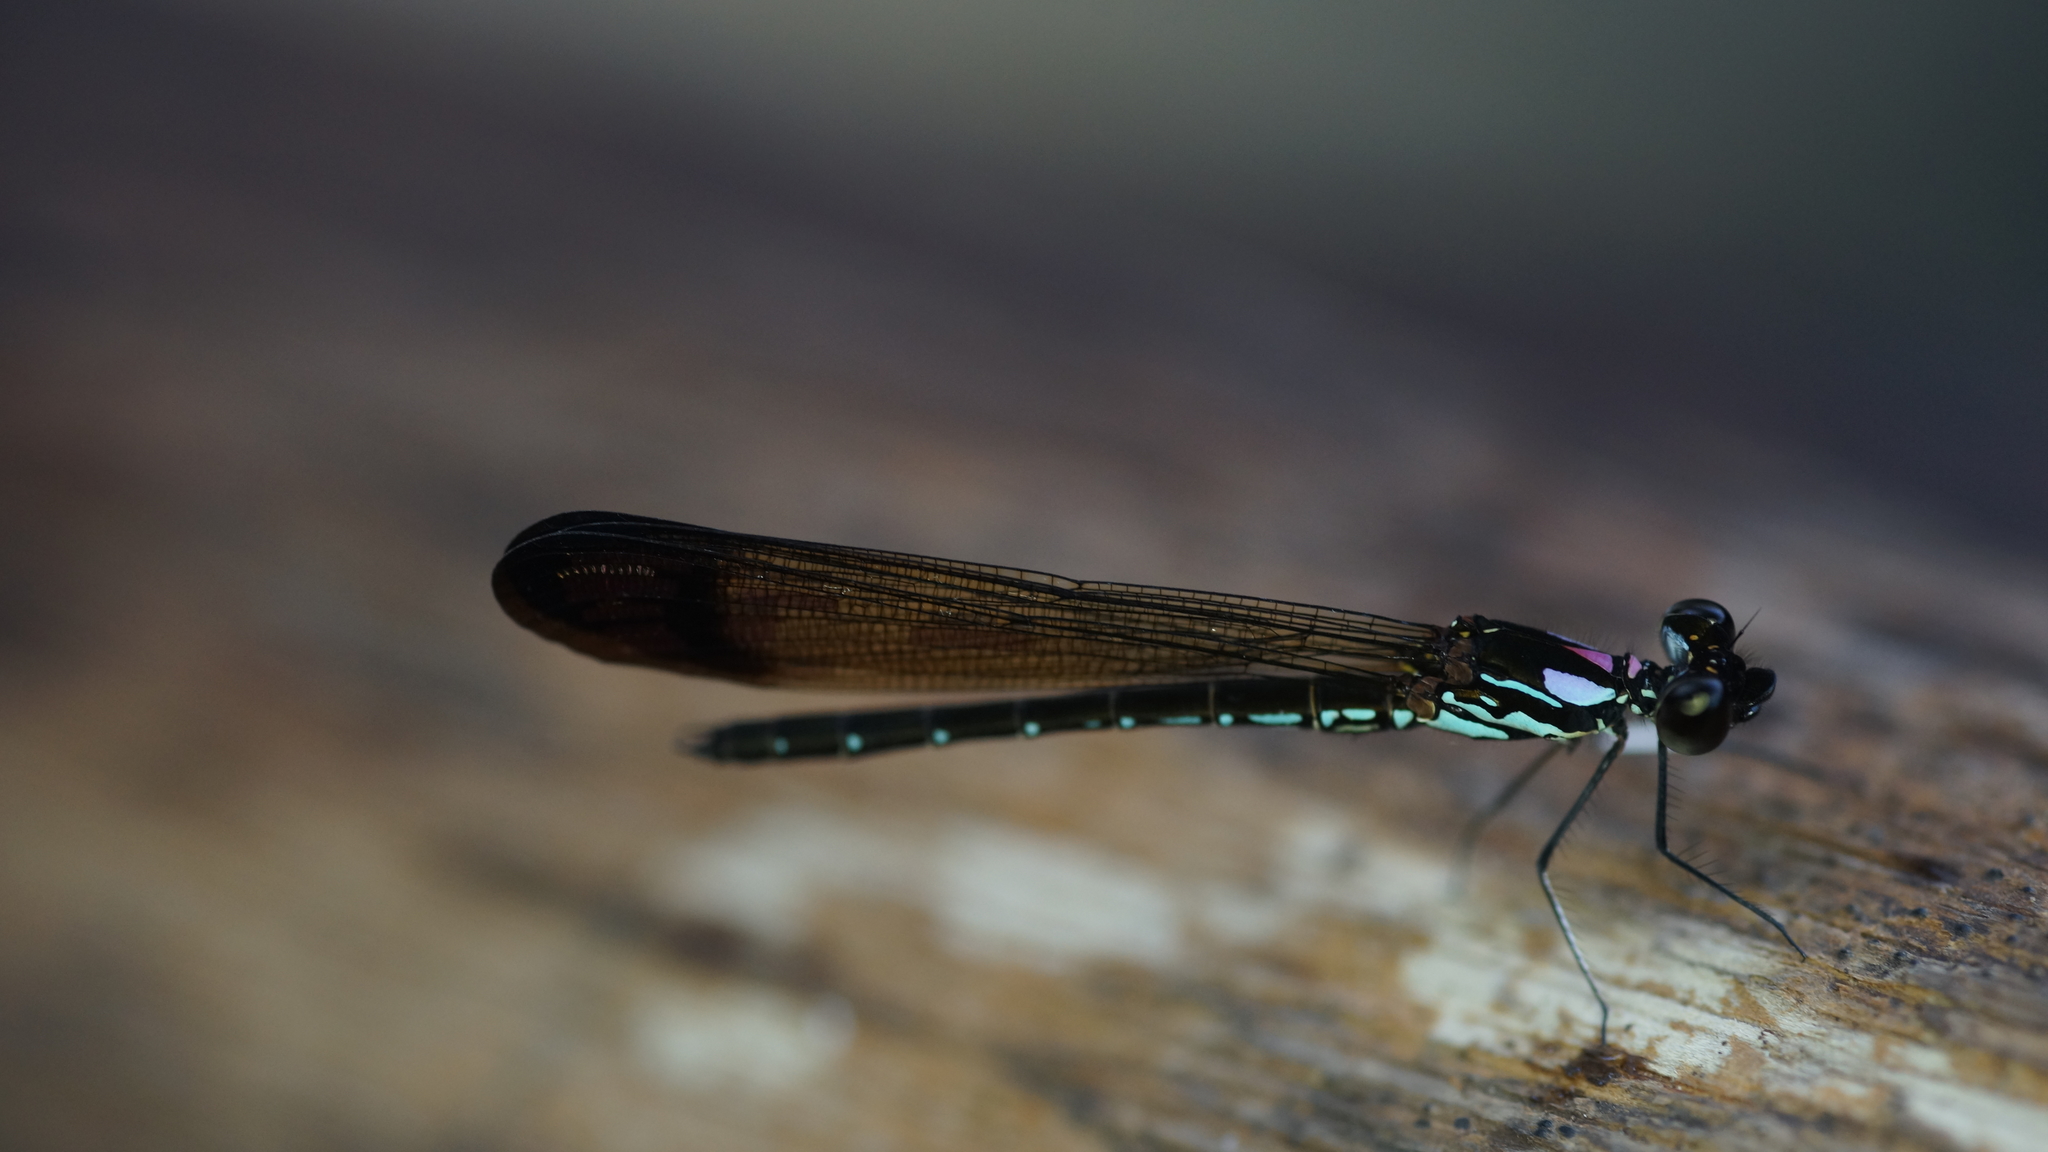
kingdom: Animalia
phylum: Arthropoda
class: Insecta
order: Odonata
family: Chlorocyphidae
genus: Heliocypha
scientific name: Heliocypha biforata
